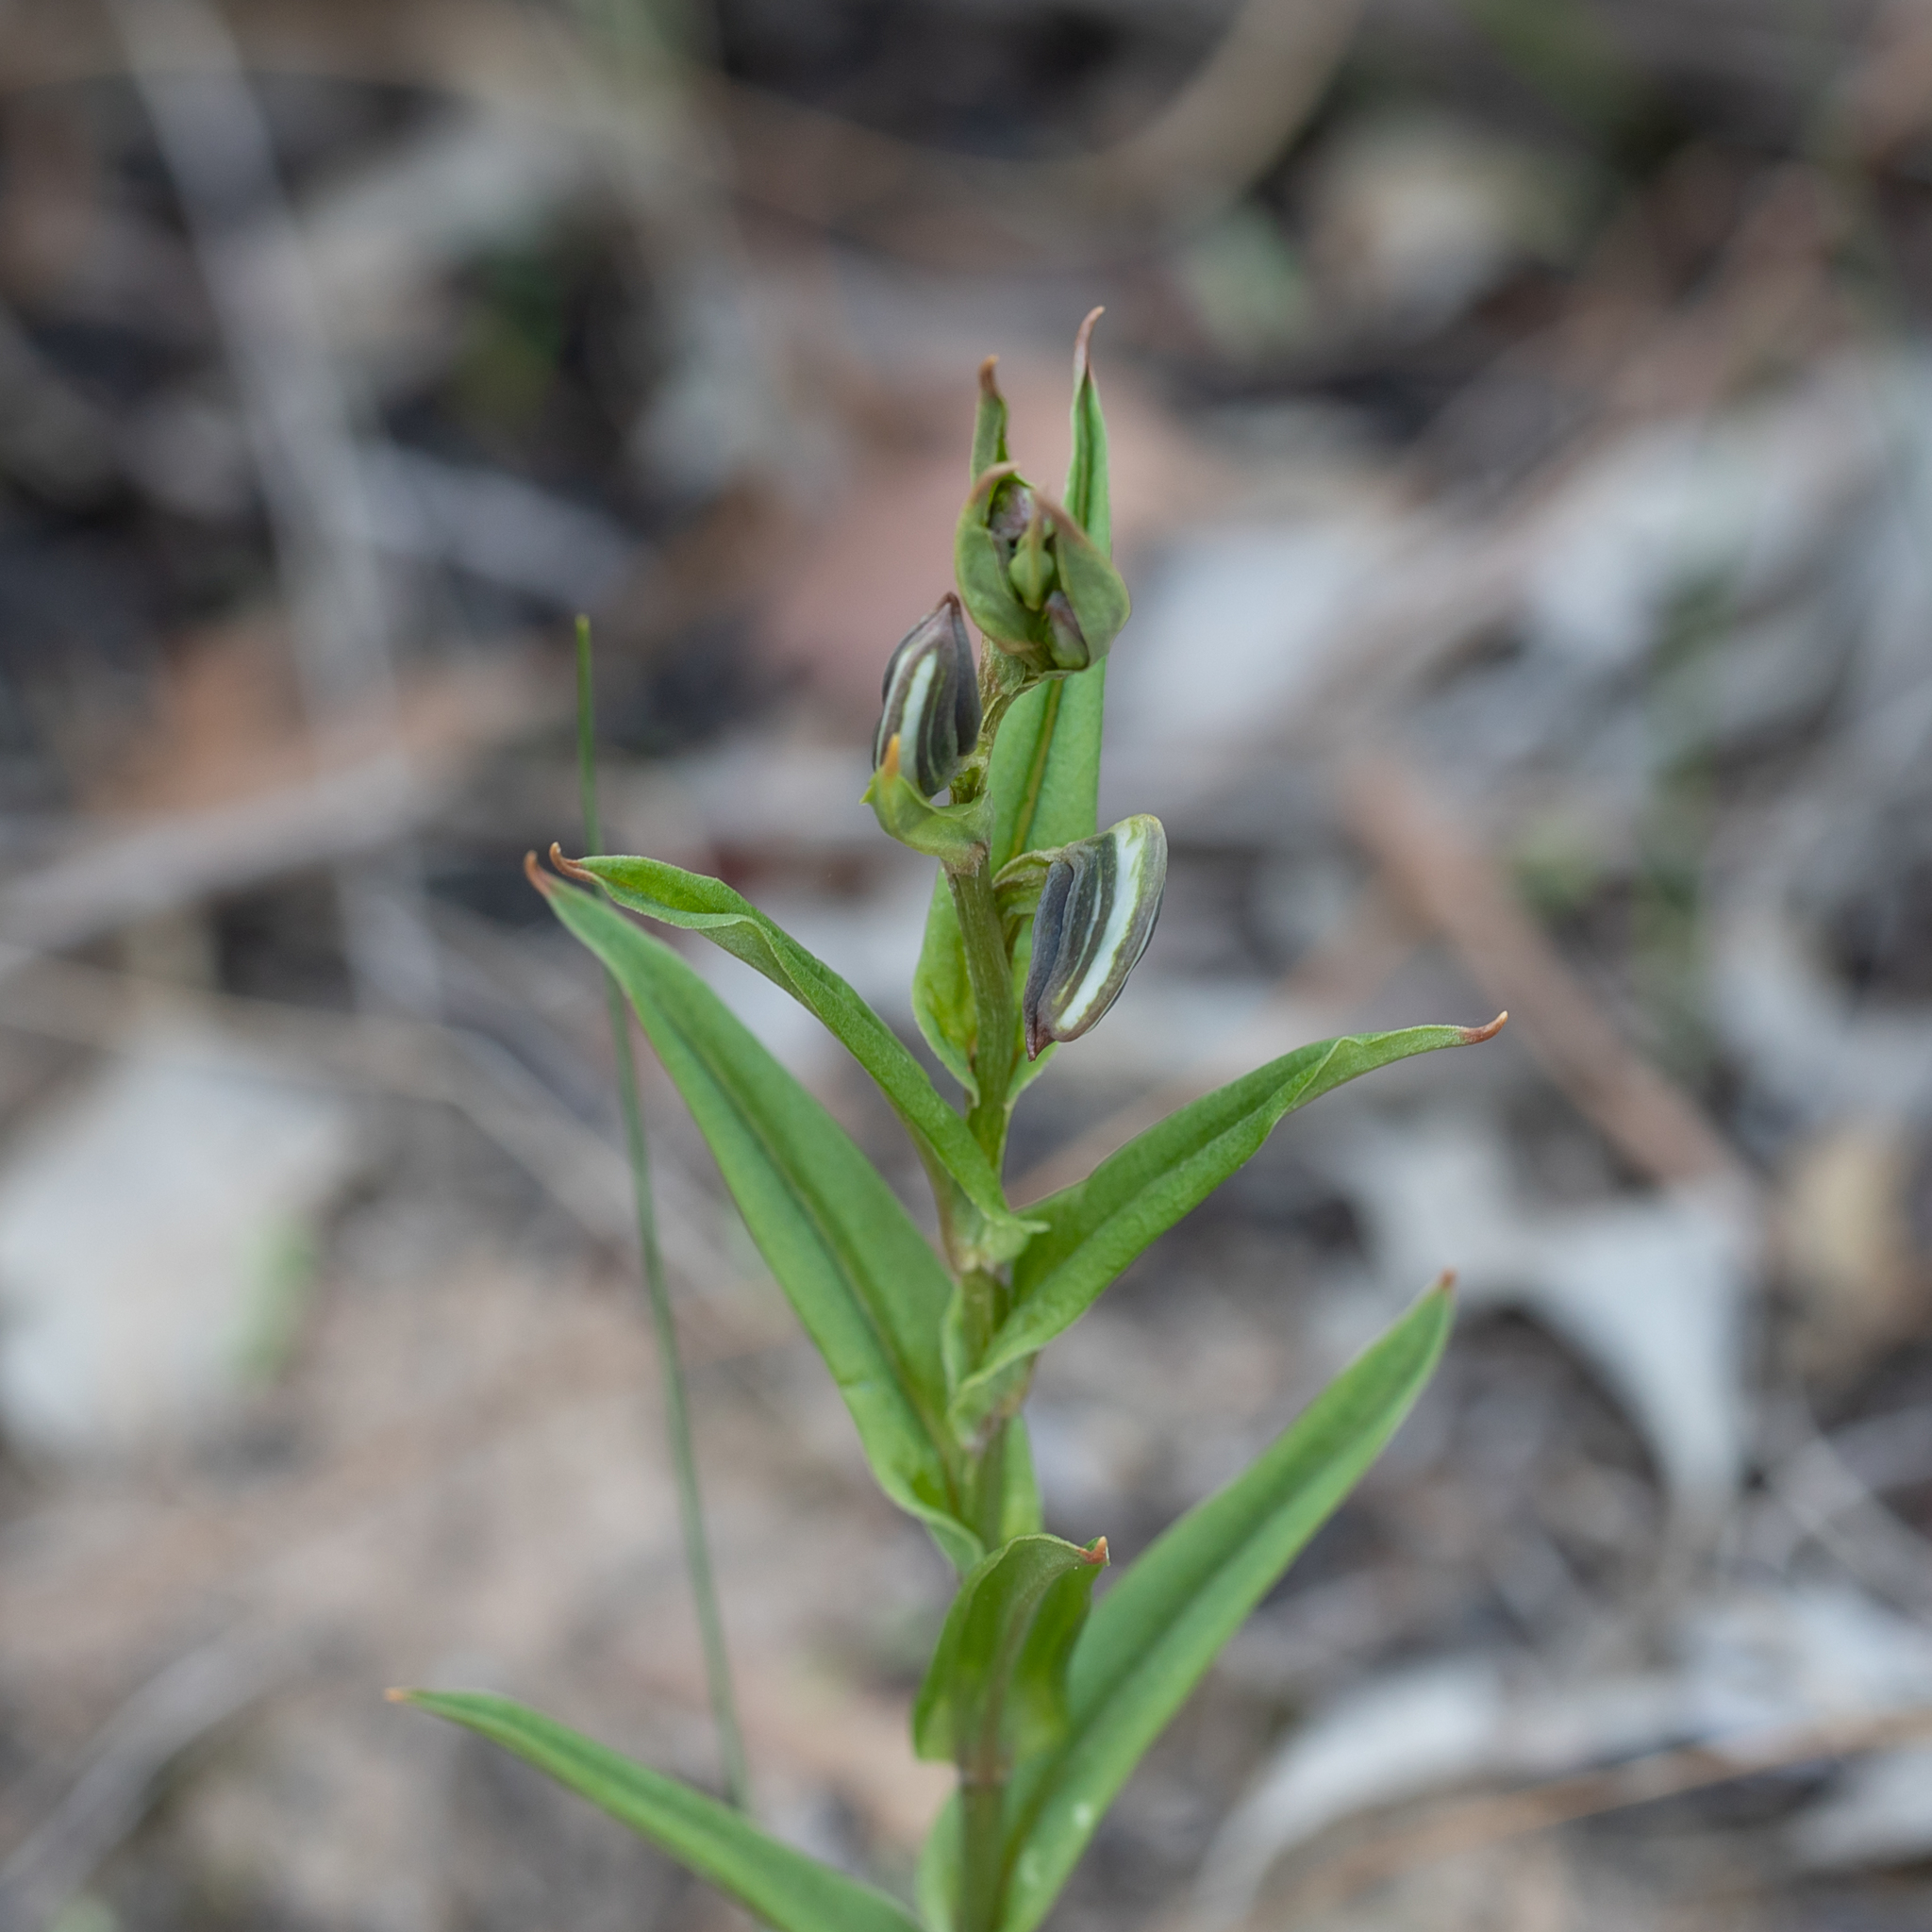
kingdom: Plantae
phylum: Tracheophyta
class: Liliopsida
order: Asparagales
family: Orchidaceae
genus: Pterostylis
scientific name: Pterostylis sanguinea
